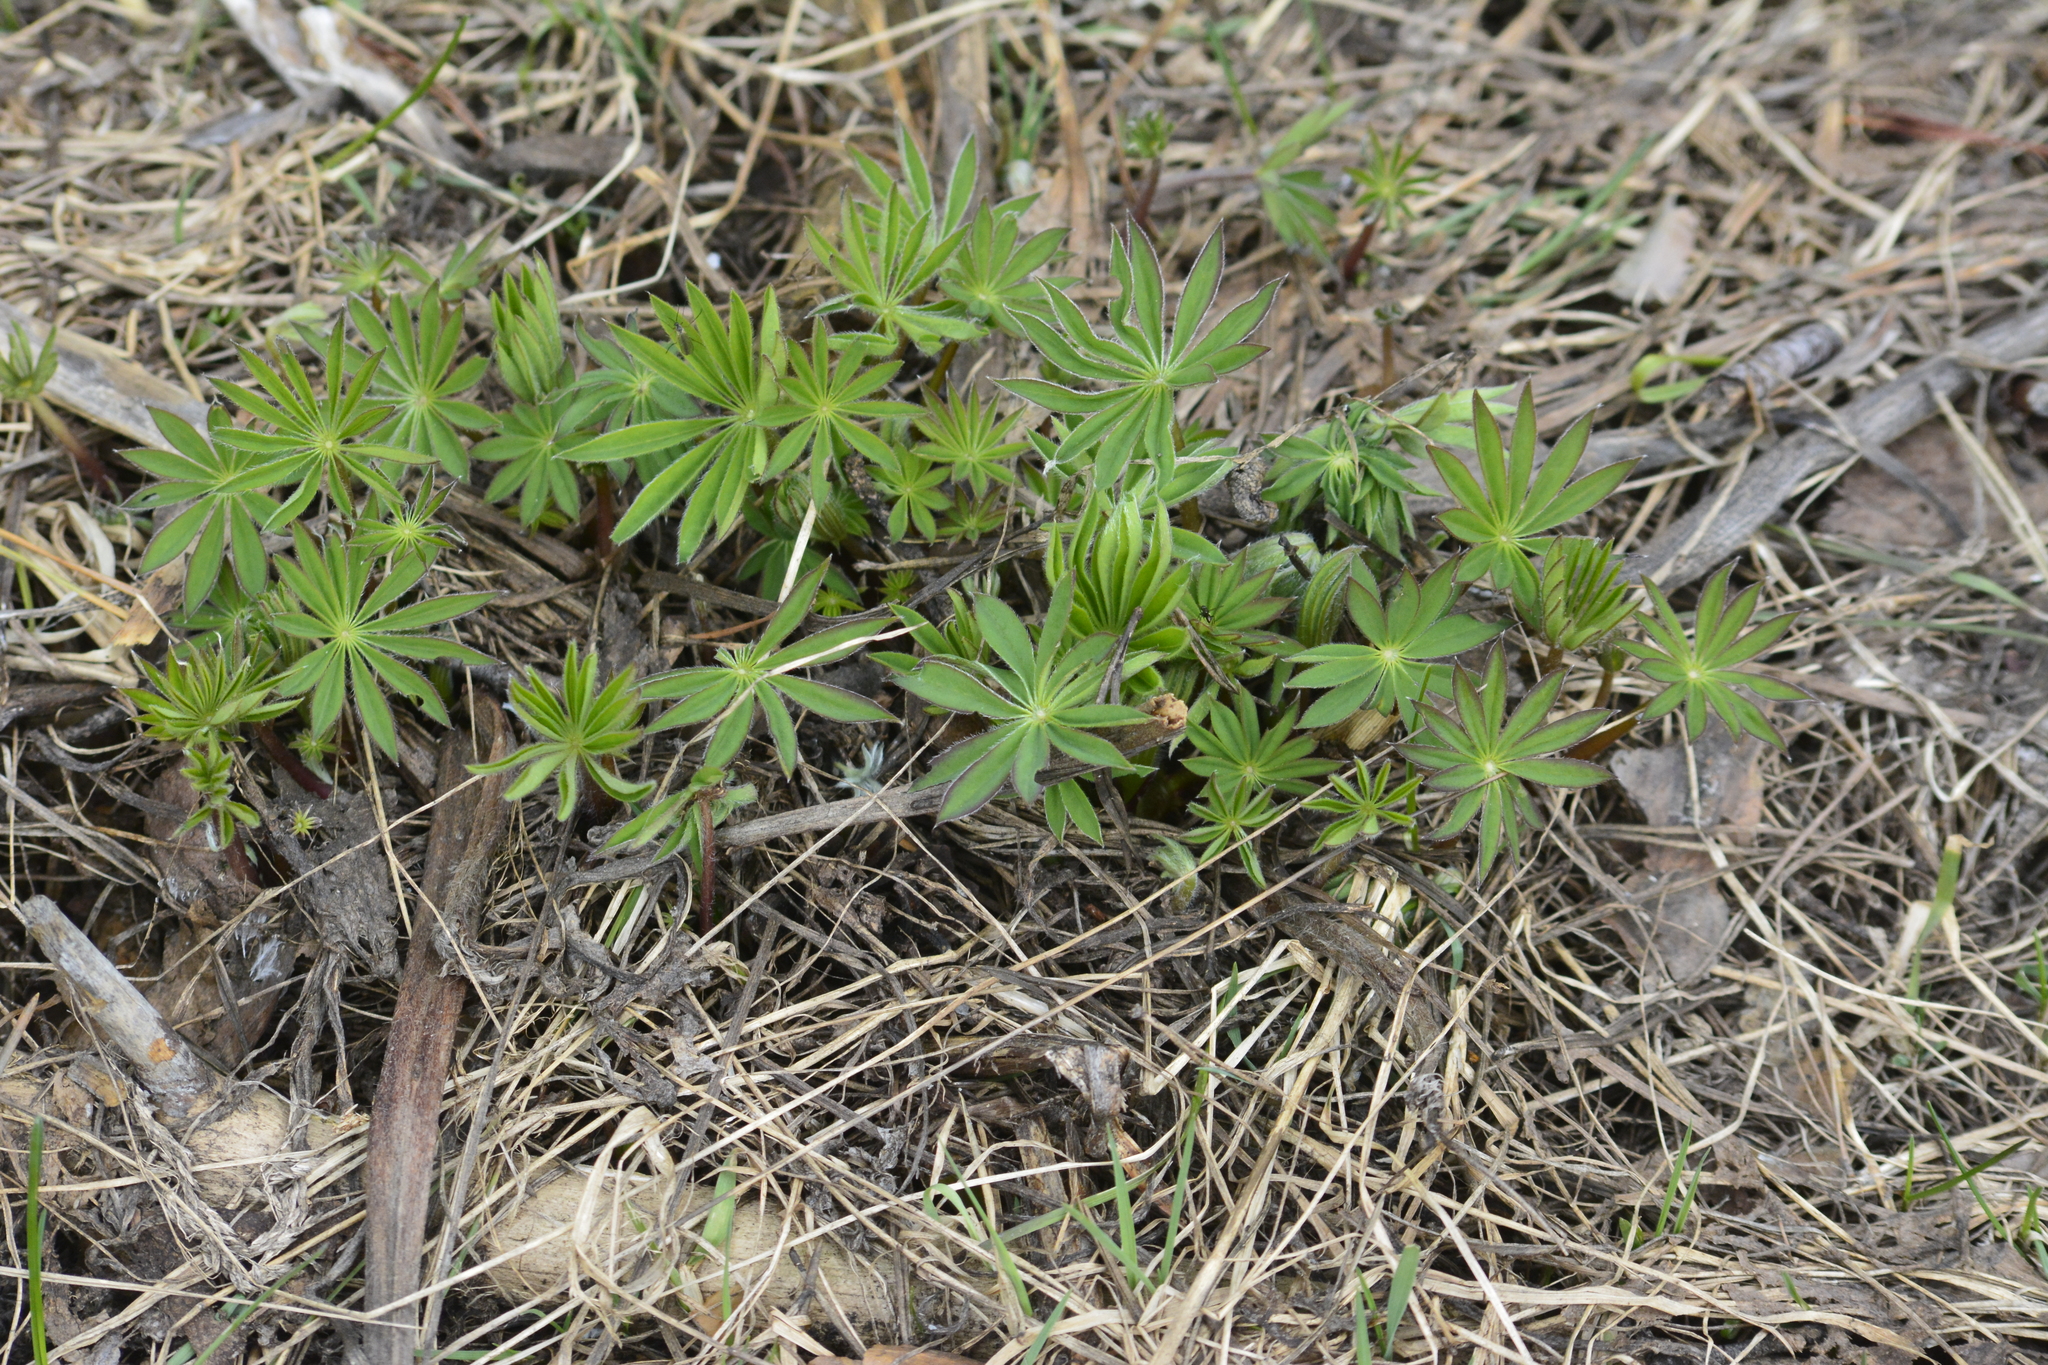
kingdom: Plantae
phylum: Tracheophyta
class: Magnoliopsida
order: Fabales
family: Fabaceae
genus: Lupinus
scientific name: Lupinus polyphyllus
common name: Garden lupin
